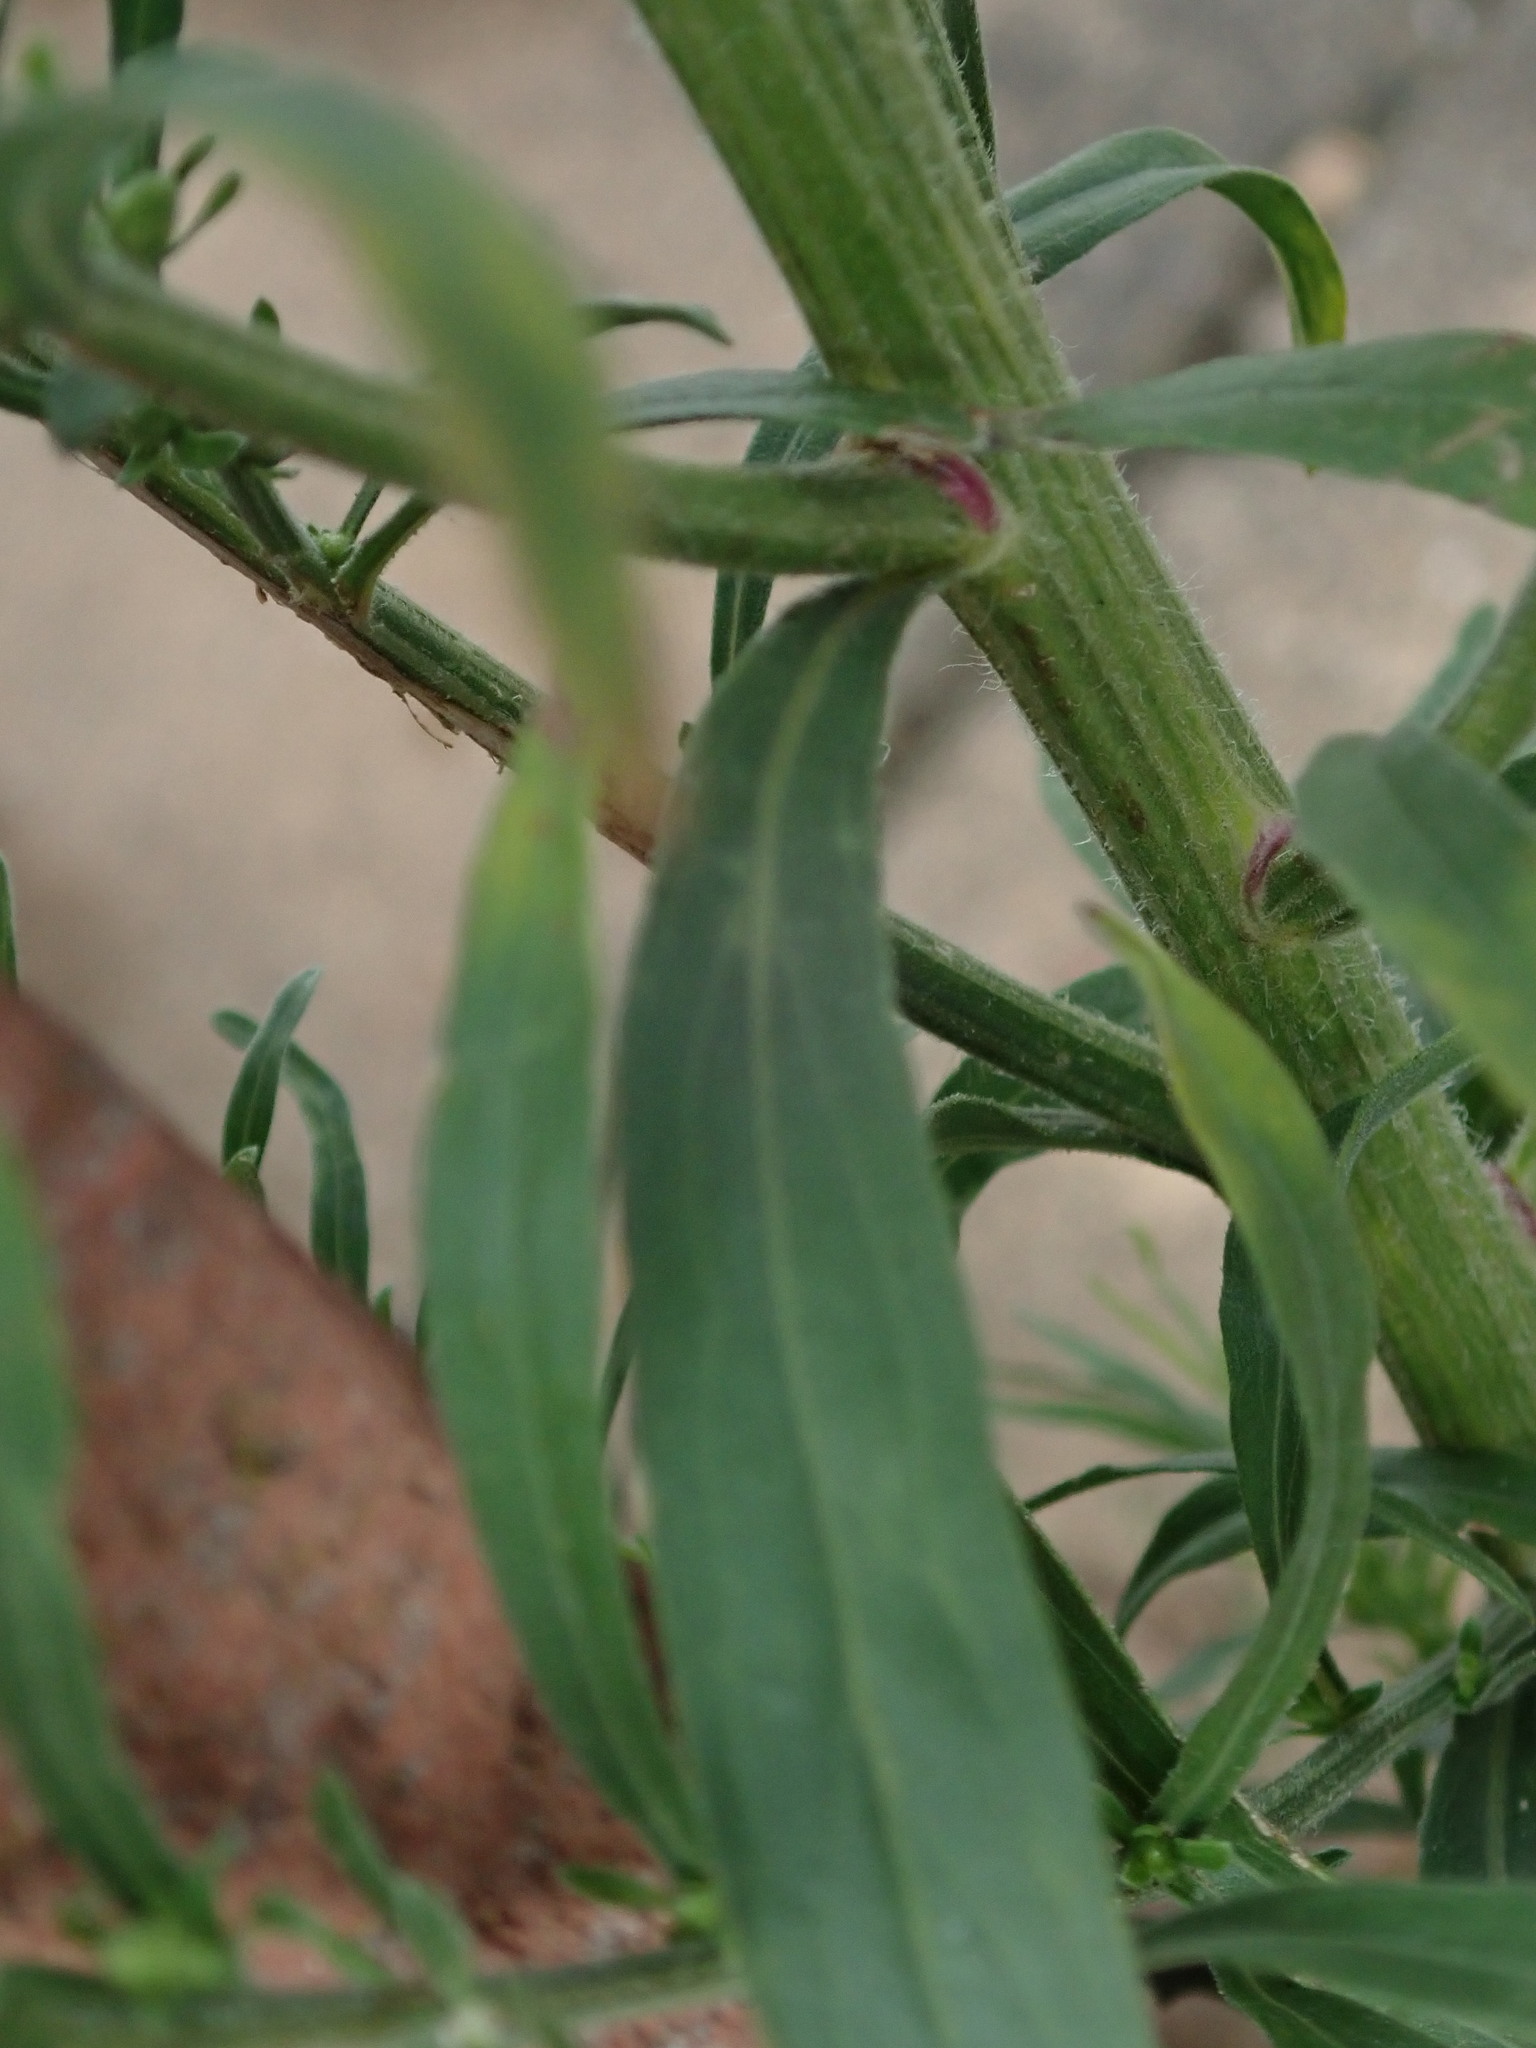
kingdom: Plantae
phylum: Tracheophyta
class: Magnoliopsida
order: Asterales
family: Asteraceae
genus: Erigeron
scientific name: Erigeron sumatrensis
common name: Daisy
